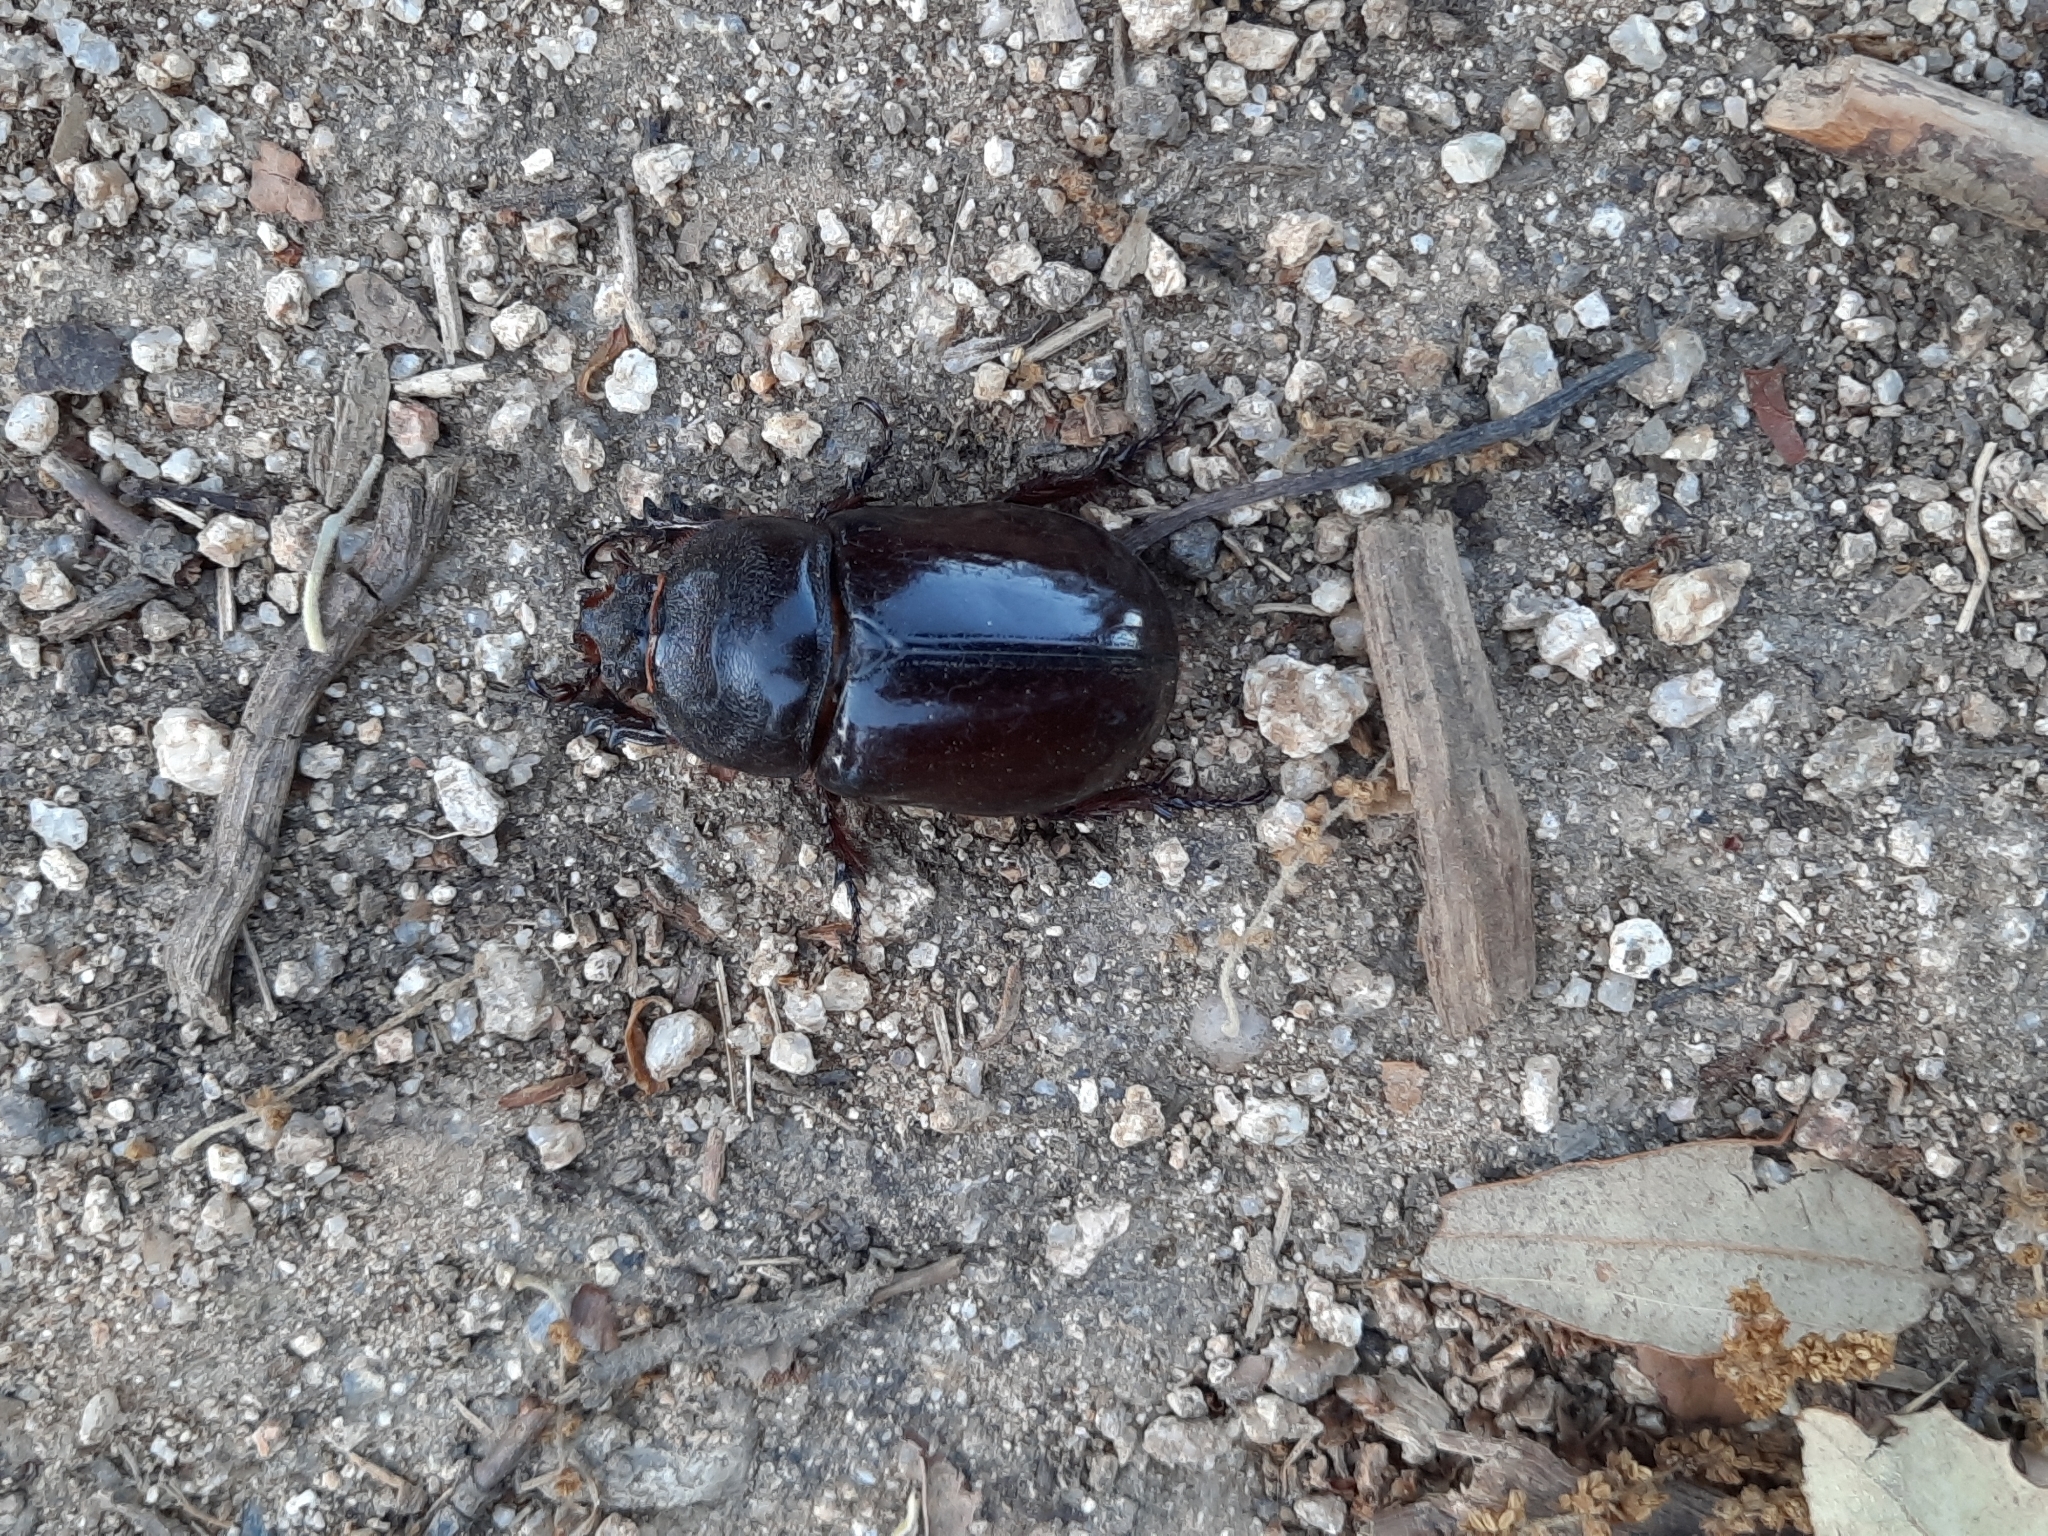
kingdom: Animalia
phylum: Arthropoda
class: Insecta
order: Coleoptera
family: Scarabaeidae
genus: Oryctes
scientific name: Oryctes nasicornis
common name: European rhinoceros beetle
